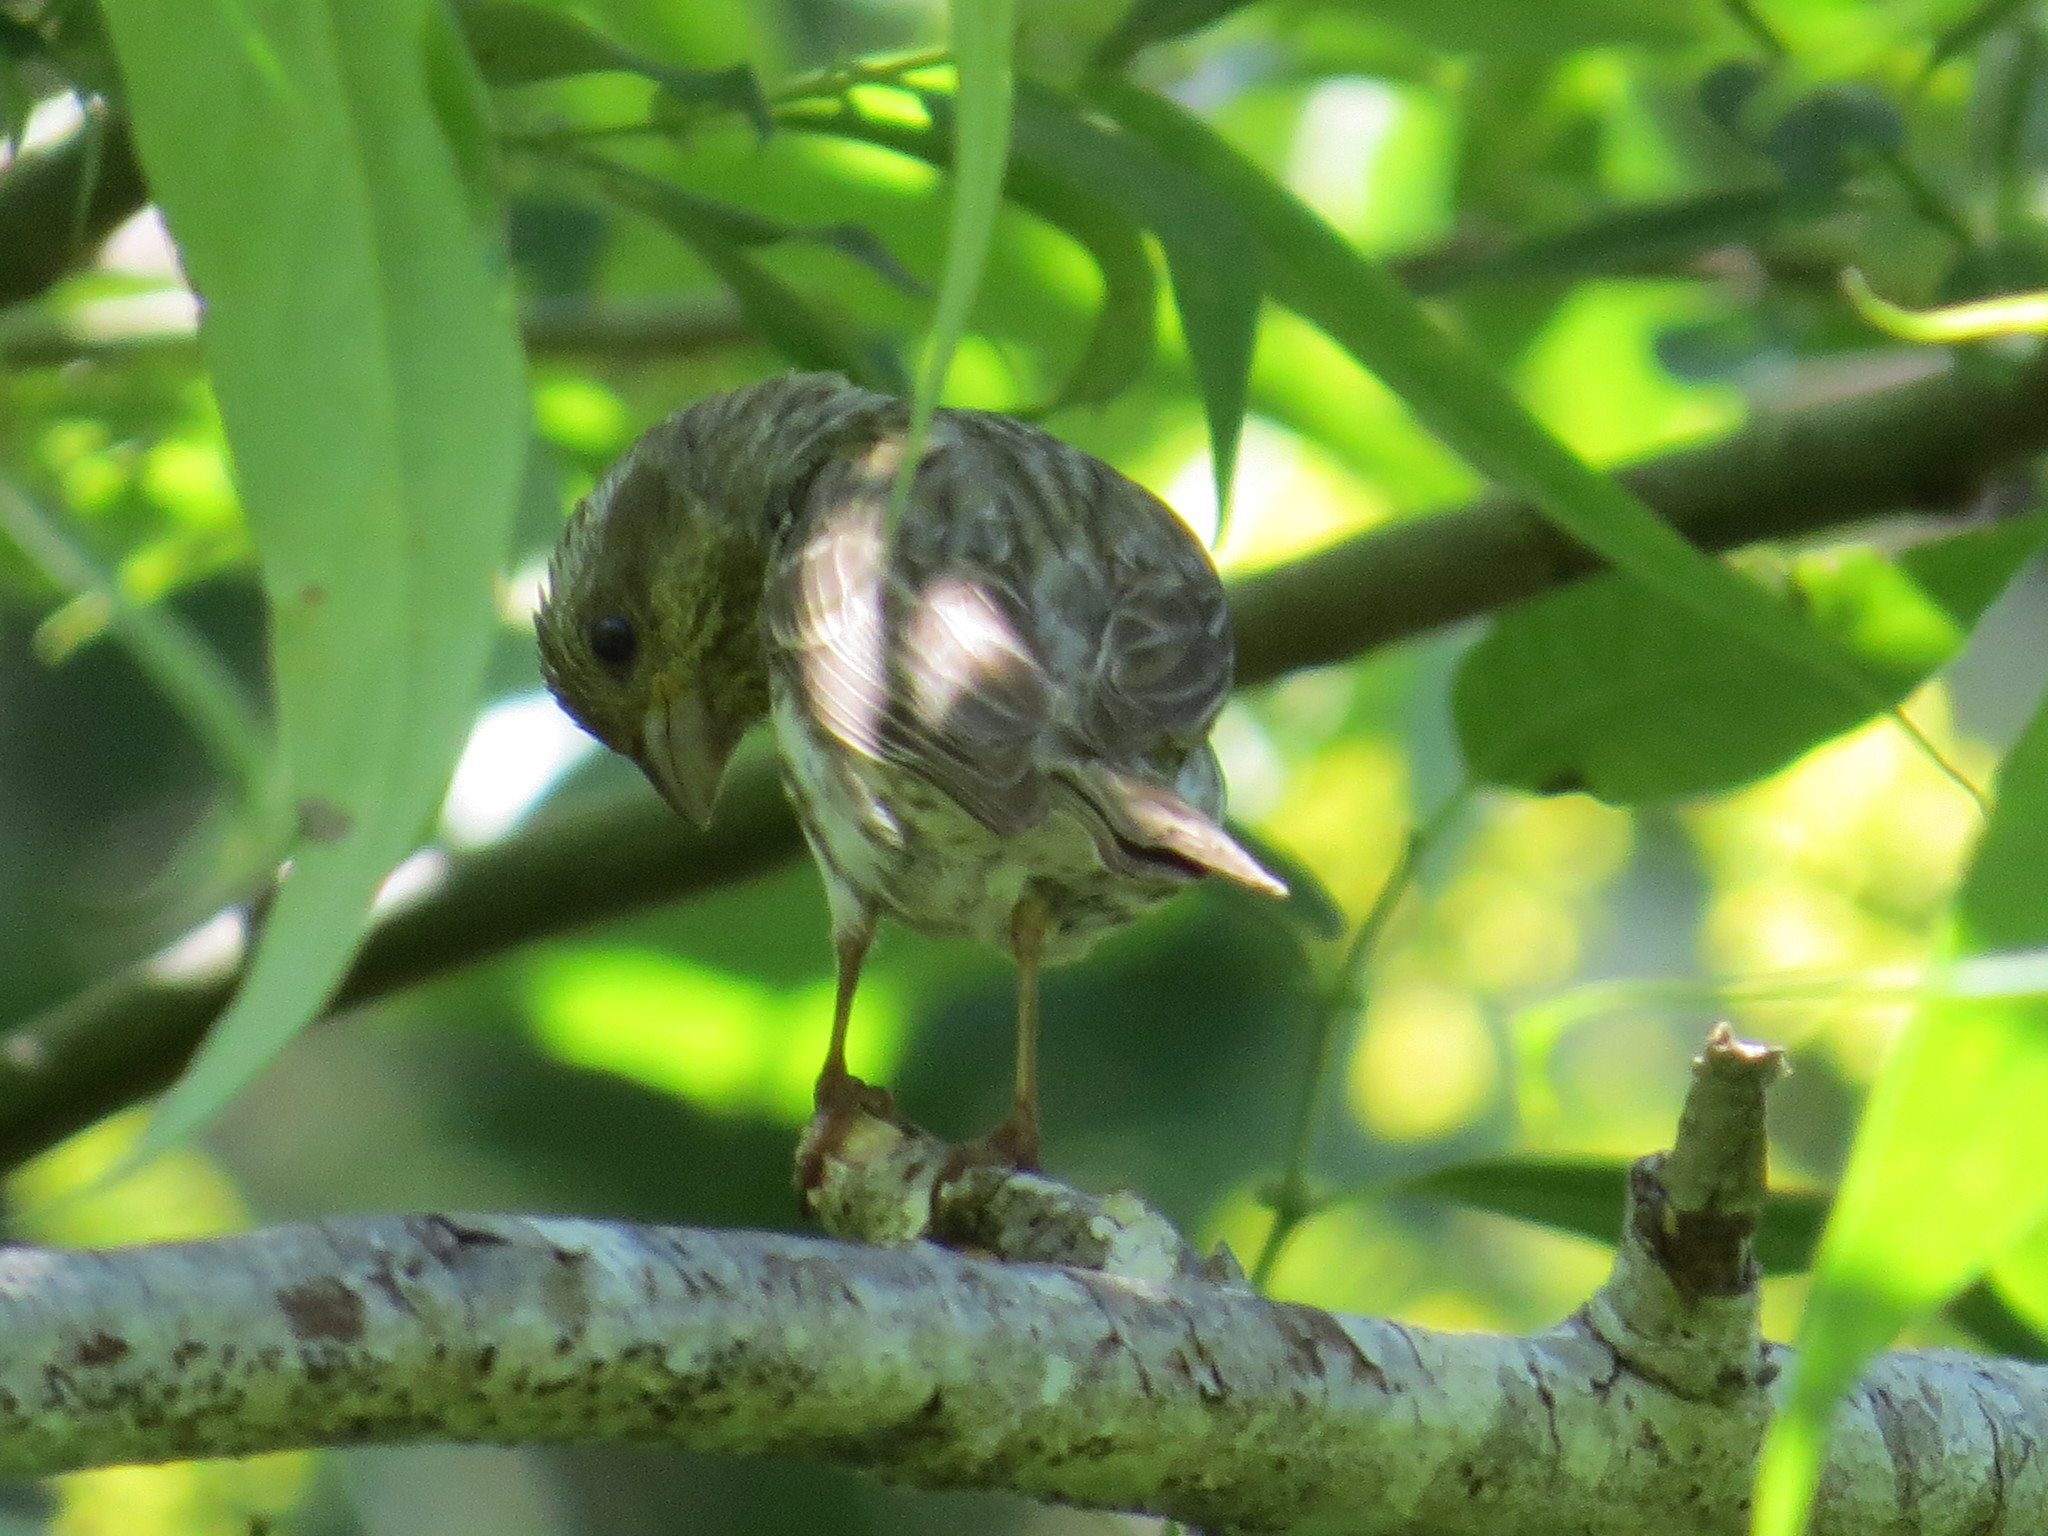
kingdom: Animalia
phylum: Chordata
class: Aves
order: Passeriformes
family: Fringillidae
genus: Haemorhous
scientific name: Haemorhous purpureus
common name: Purple finch
